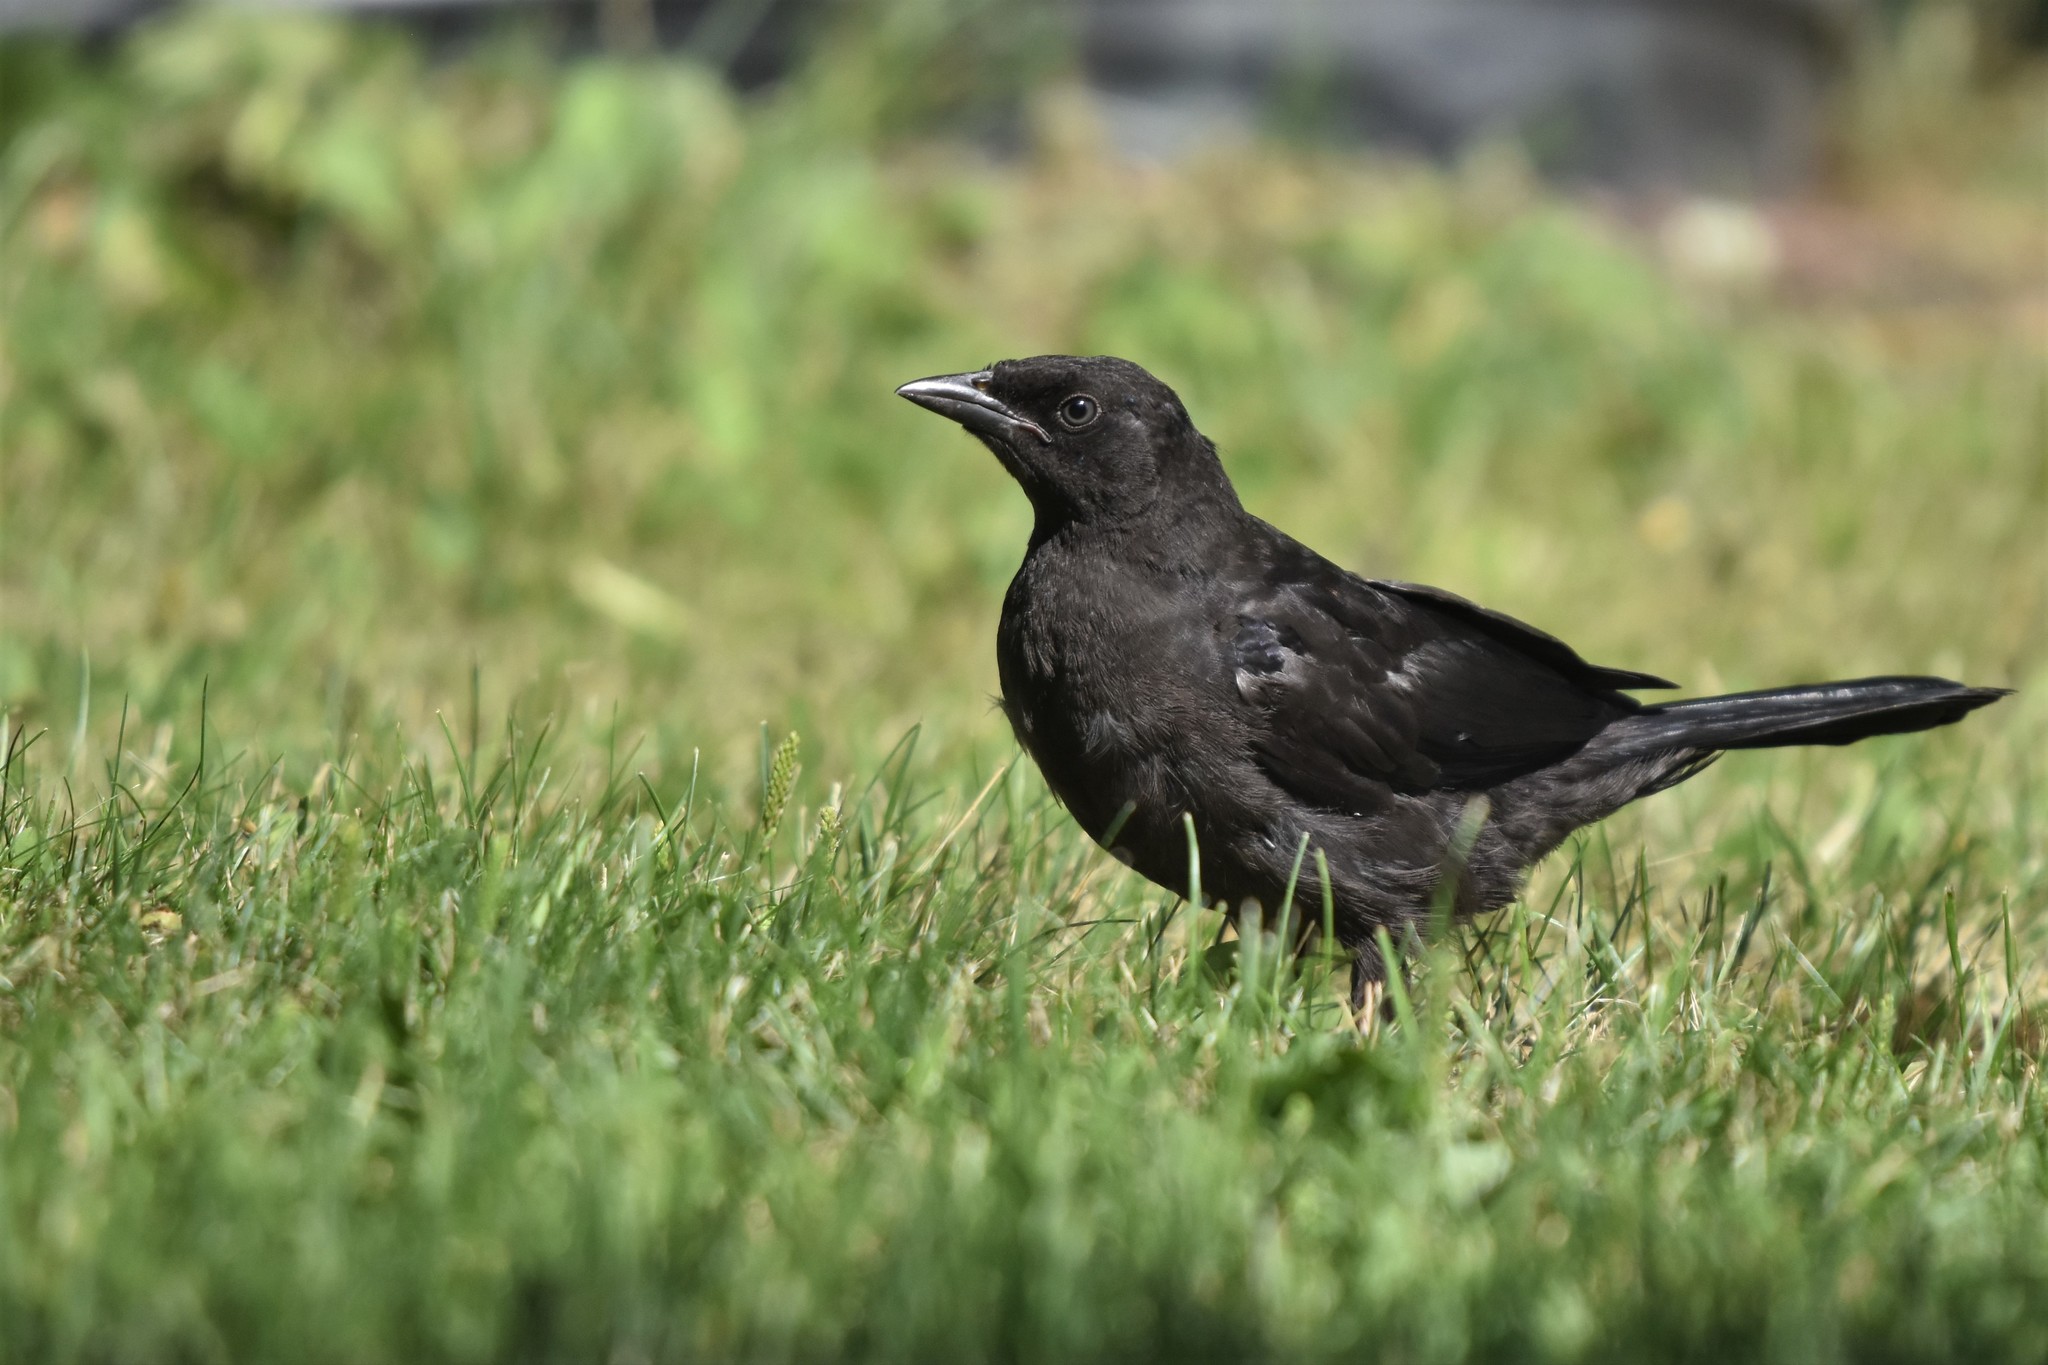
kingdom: Animalia
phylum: Chordata
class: Aves
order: Passeriformes
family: Icteridae
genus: Quiscalus
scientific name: Quiscalus quiscula
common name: Common grackle
